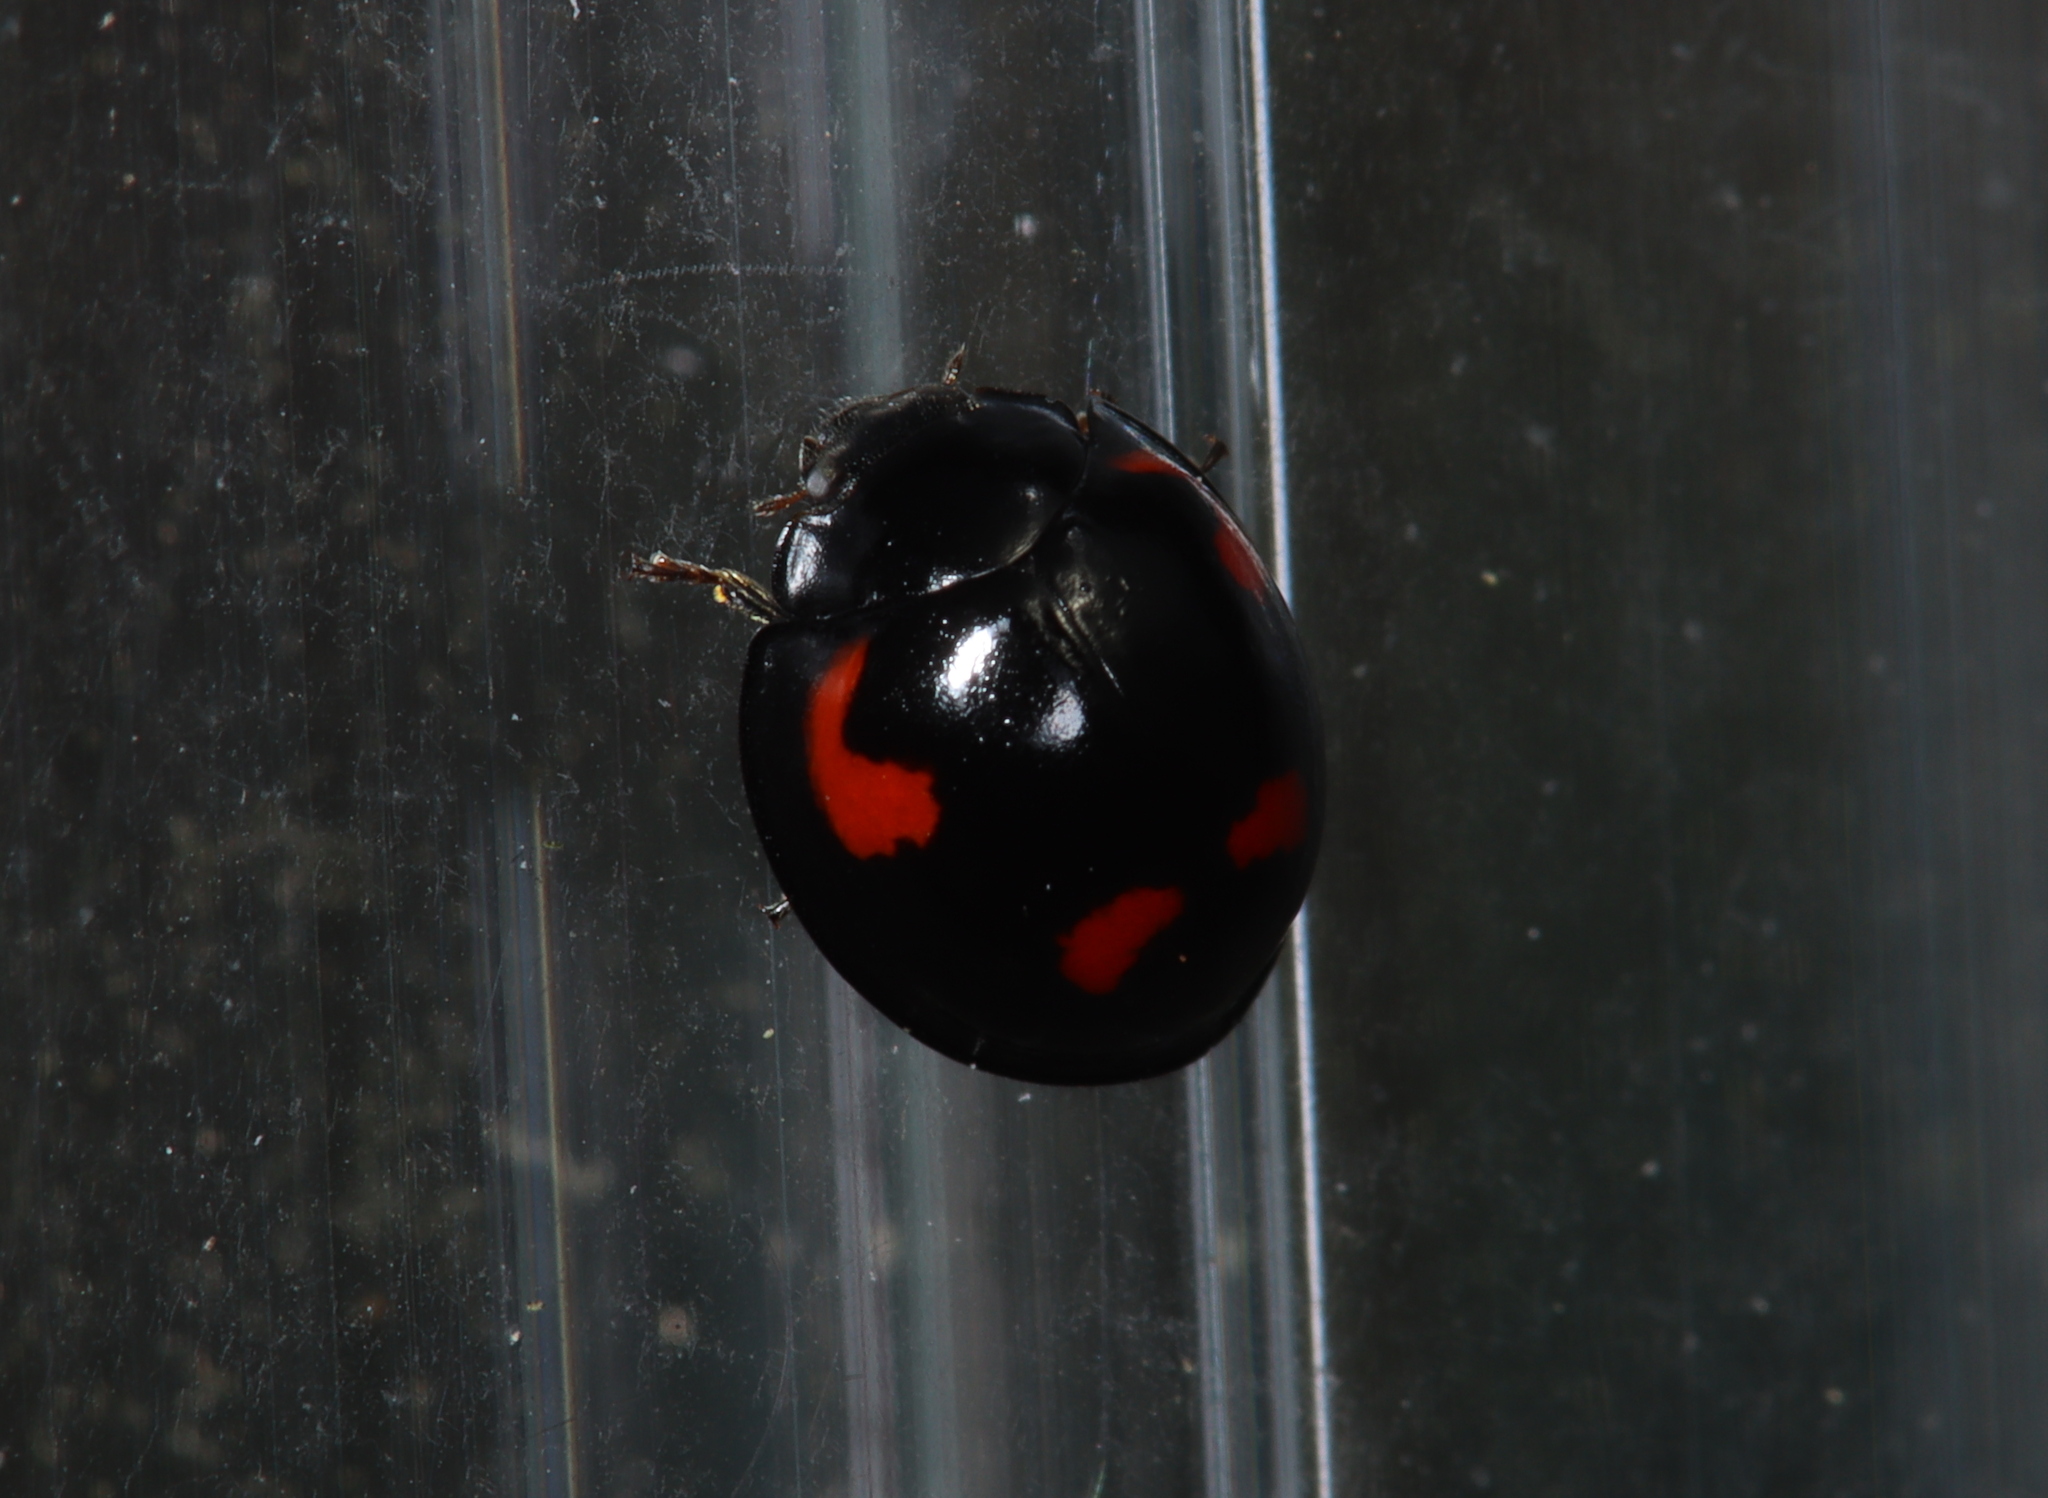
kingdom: Animalia
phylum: Arthropoda
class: Insecta
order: Coleoptera
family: Coccinellidae
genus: Brumus
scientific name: Brumus quadripustulatus
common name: Ladybird beetle
